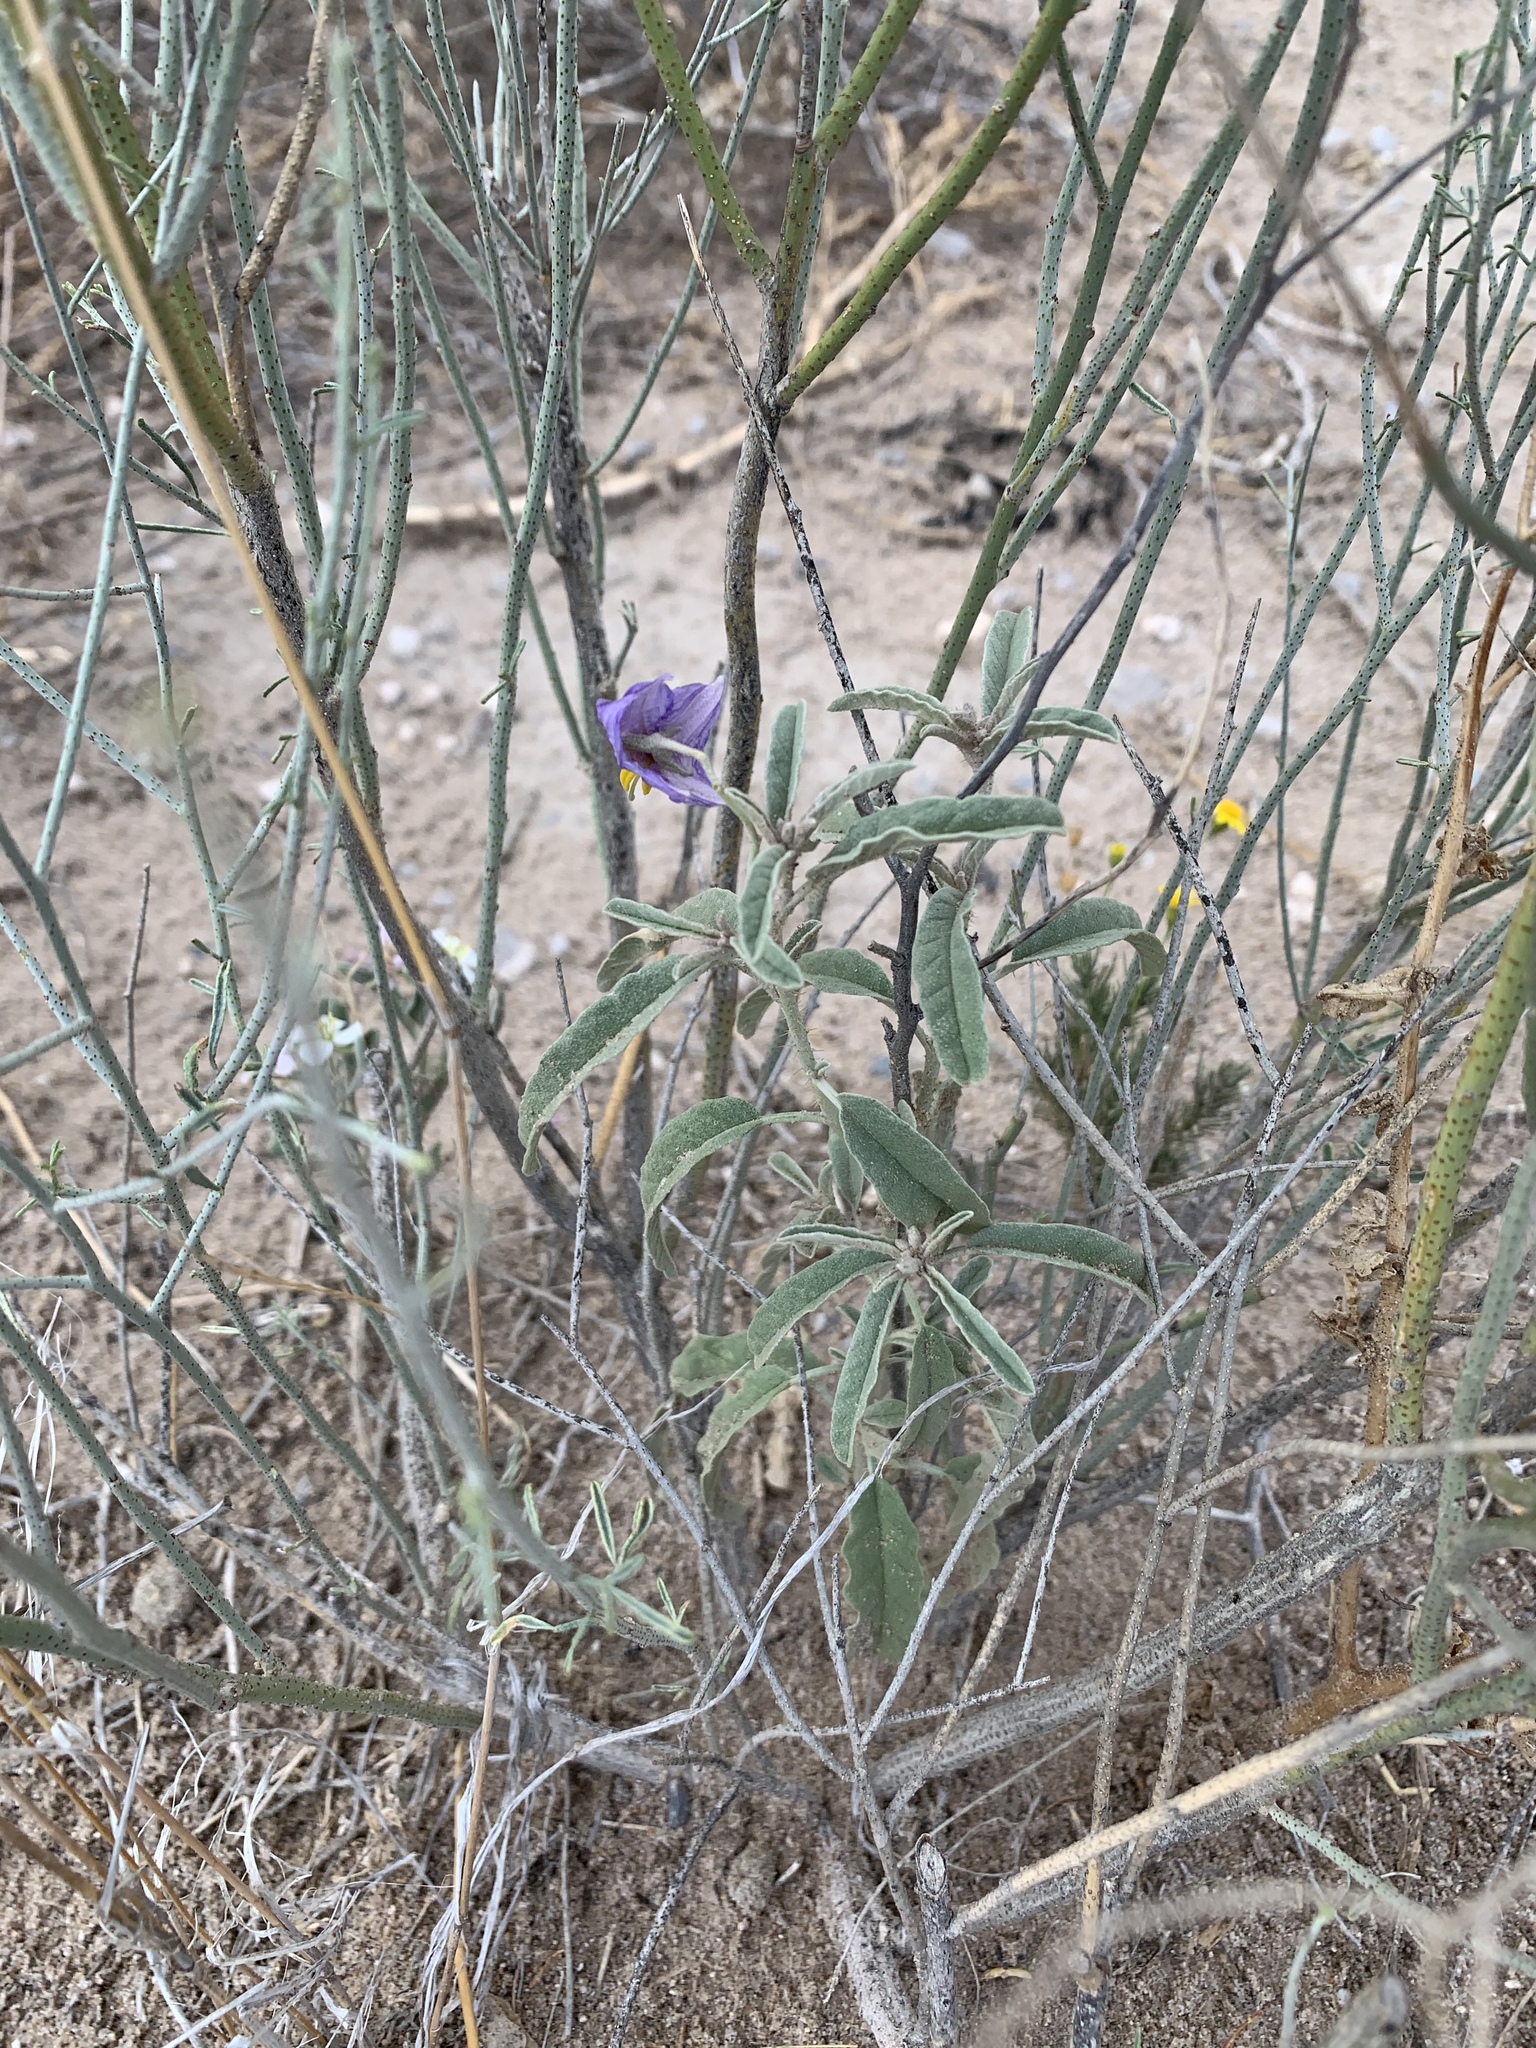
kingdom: Plantae
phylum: Tracheophyta
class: Magnoliopsida
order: Solanales
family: Solanaceae
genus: Solanum
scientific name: Solanum elaeagnifolium
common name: Silverleaf nightshade
